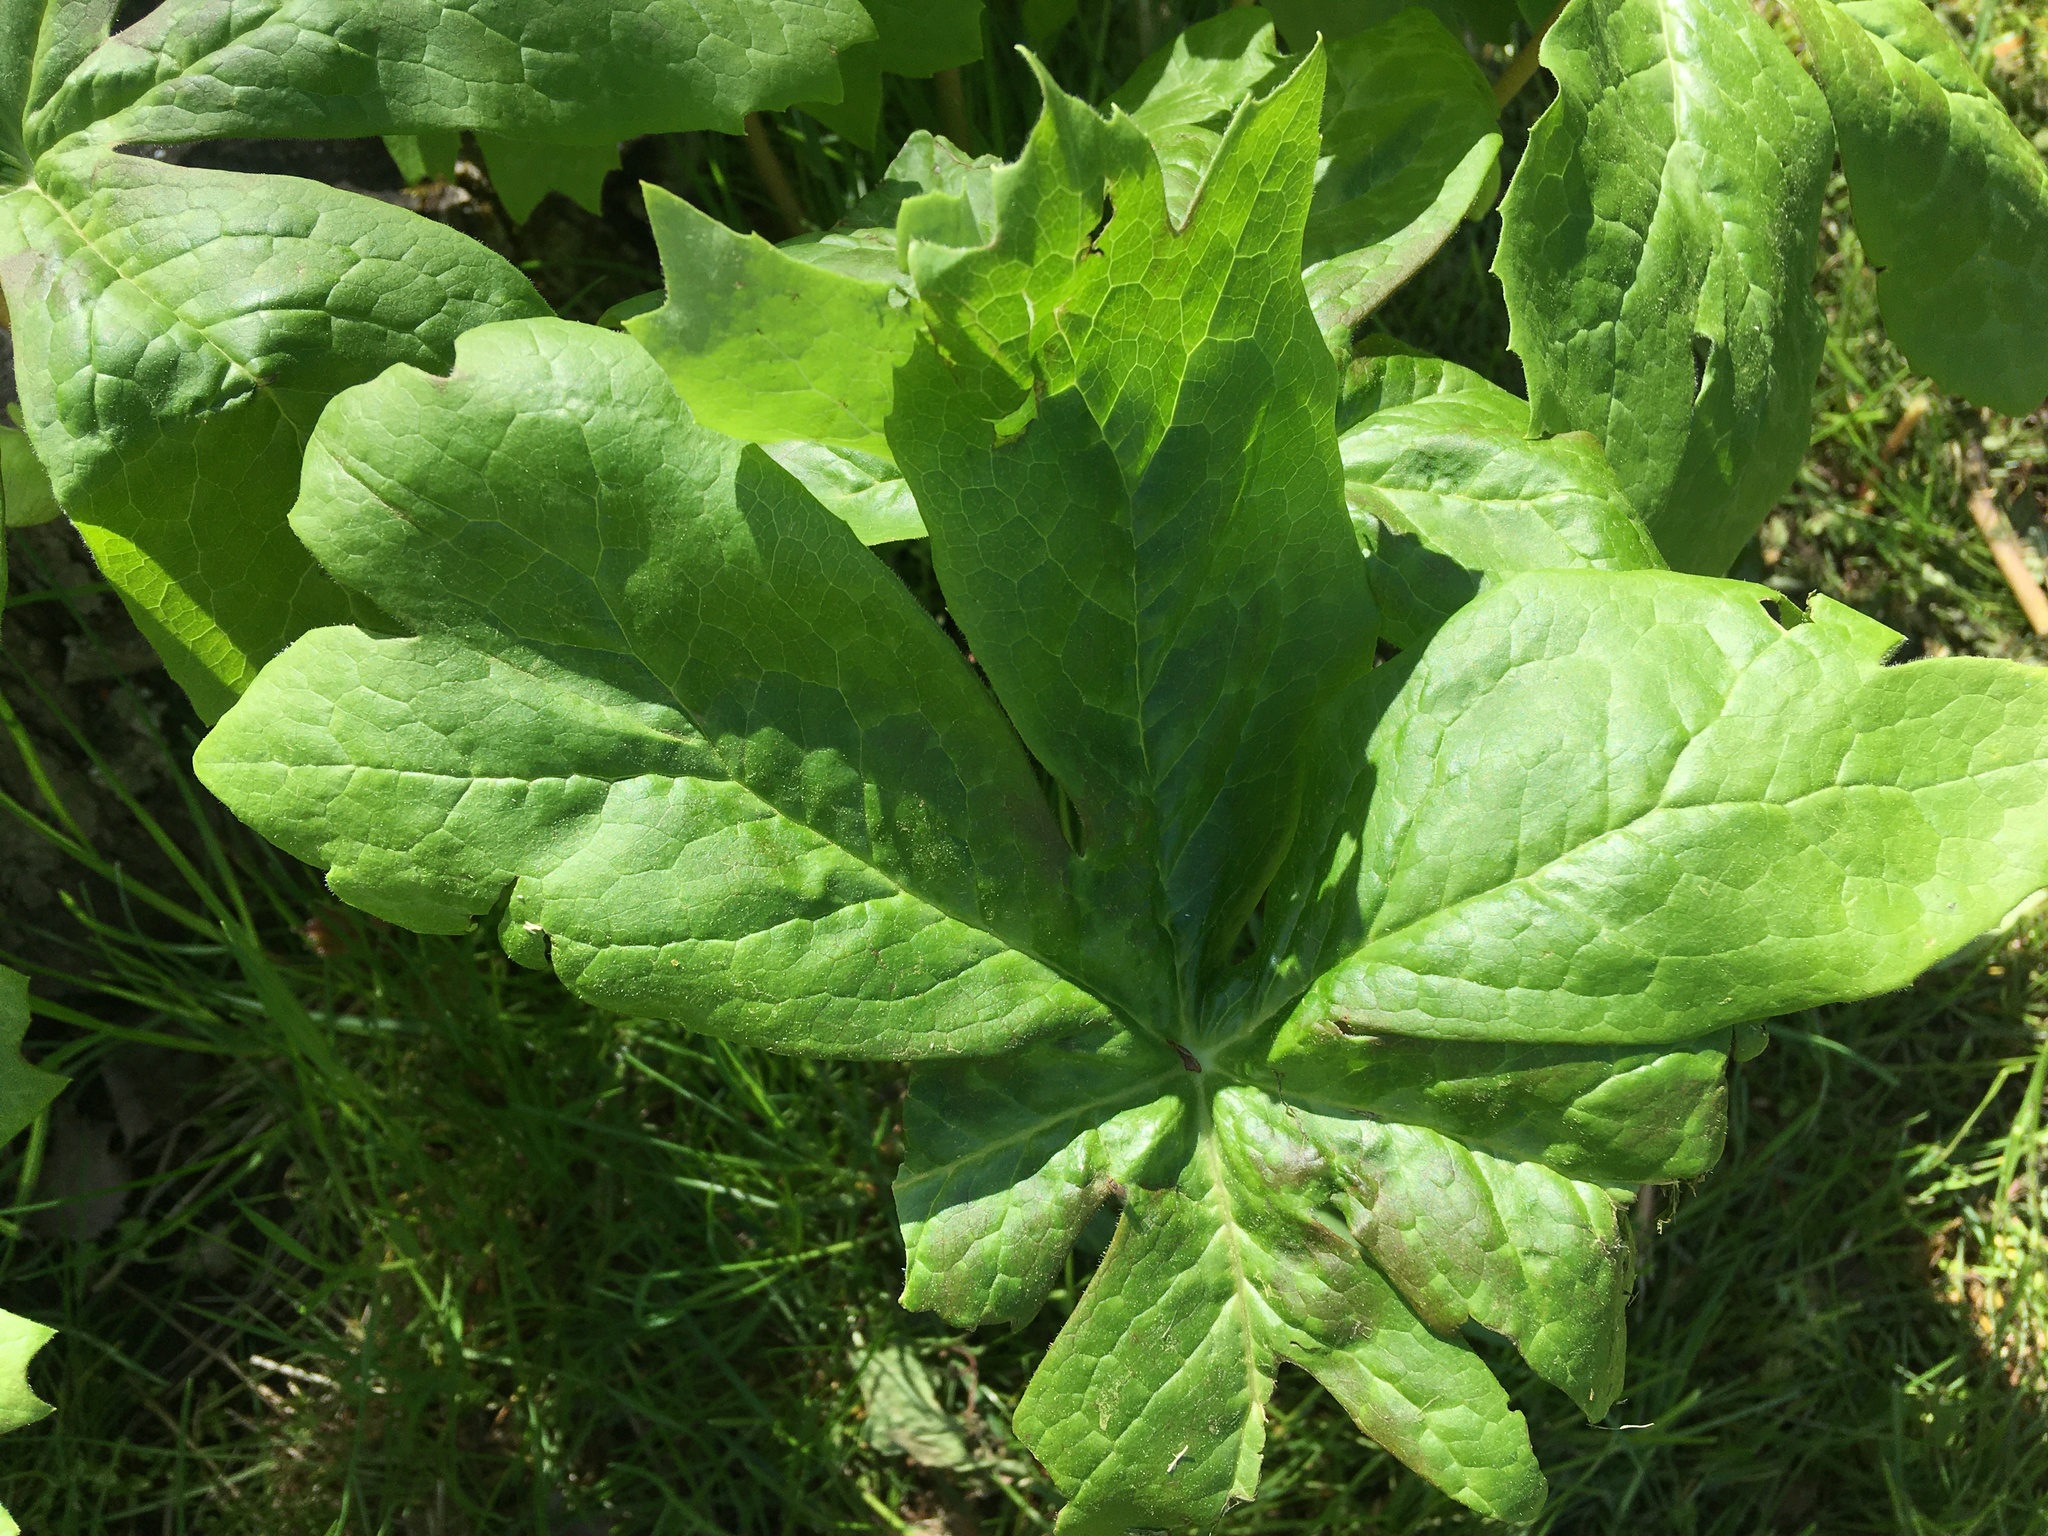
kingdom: Plantae
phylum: Tracheophyta
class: Magnoliopsida
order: Ranunculales
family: Berberidaceae
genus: Podophyllum
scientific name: Podophyllum peltatum
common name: Wild mandrake
